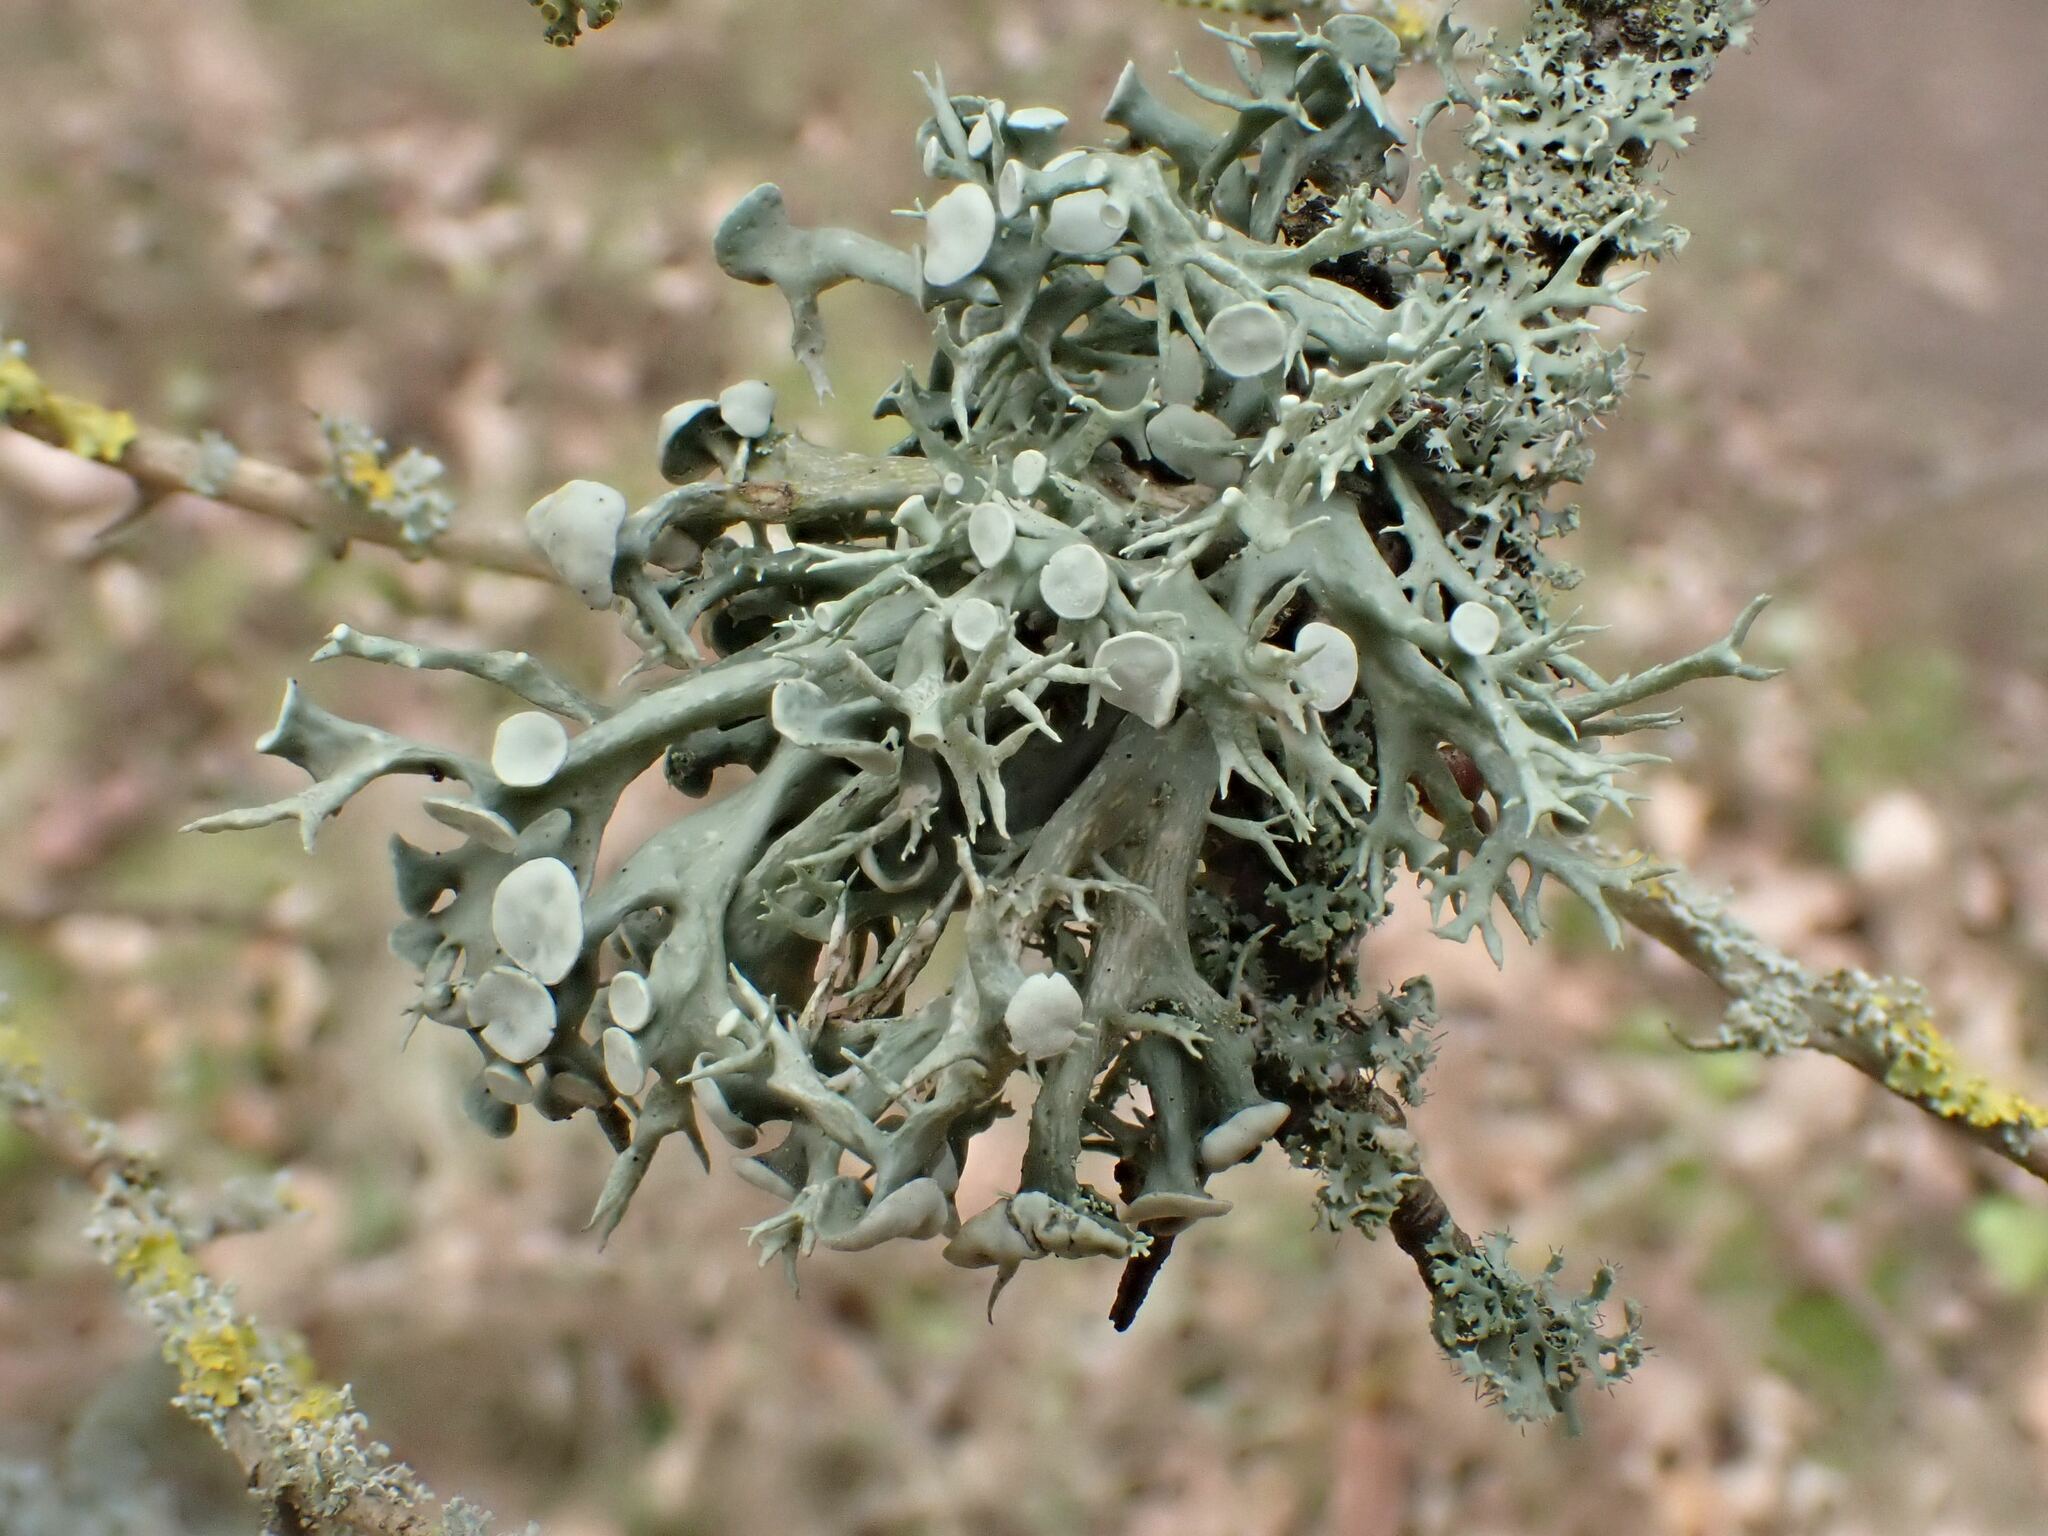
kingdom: Fungi
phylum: Ascomycota
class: Lecanoromycetes
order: Lecanorales
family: Ramalinaceae
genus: Ramalina
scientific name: Ramalina fastigiata
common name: Dotted ribbon lichen
